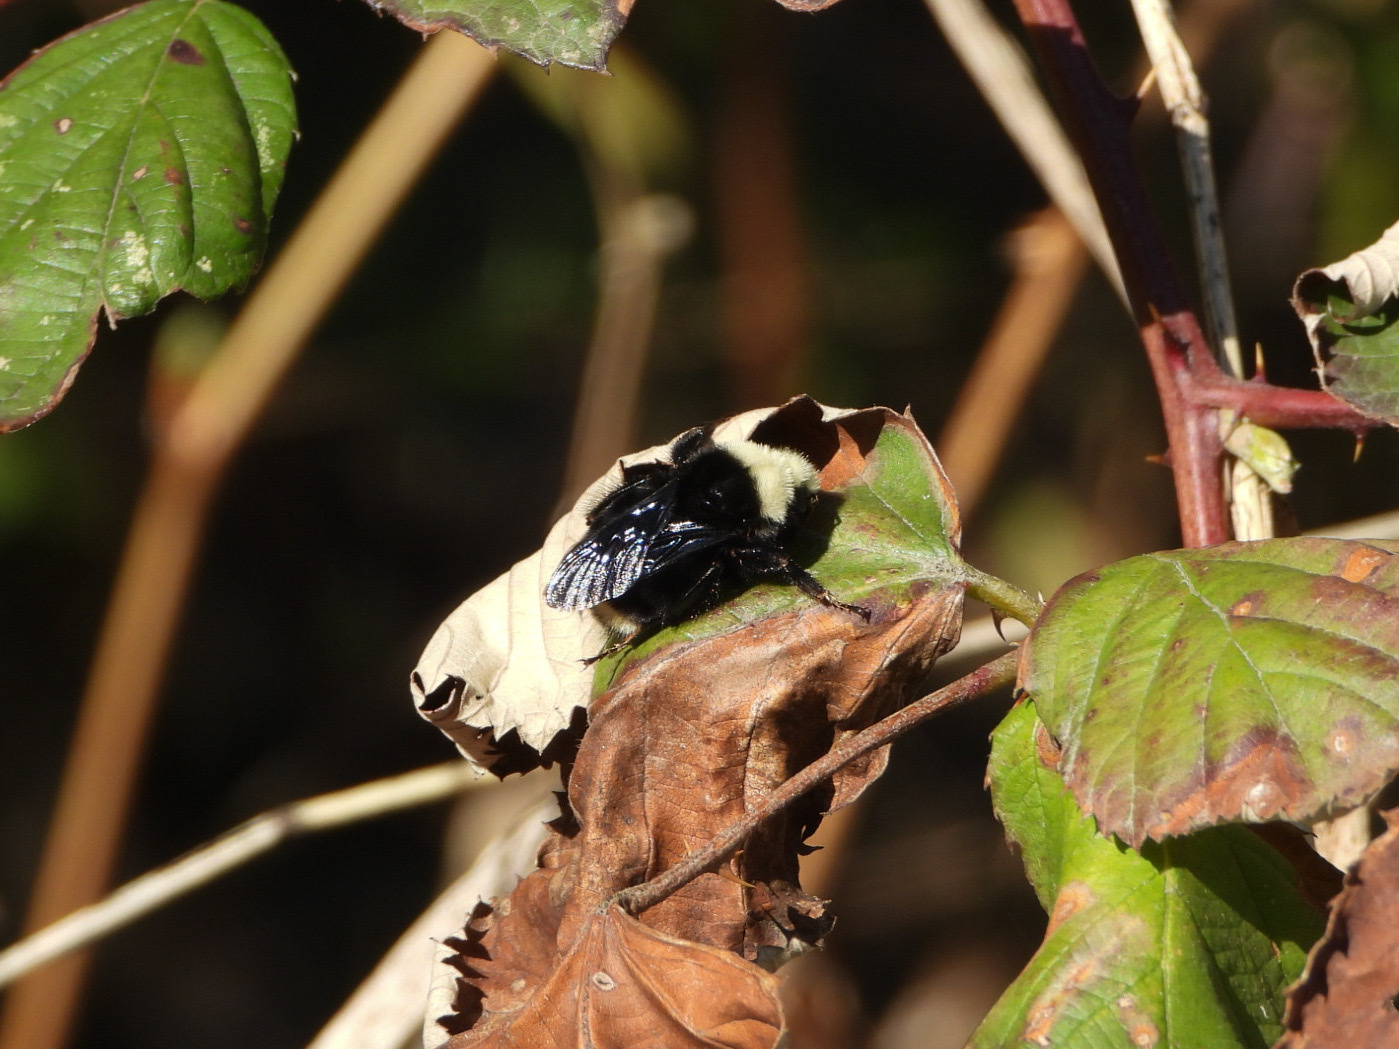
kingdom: Animalia
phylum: Arthropoda
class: Insecta
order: Hymenoptera
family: Apidae
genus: Bombus
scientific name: Bombus vosnesenskii
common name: Vosnesensky bumble bee
